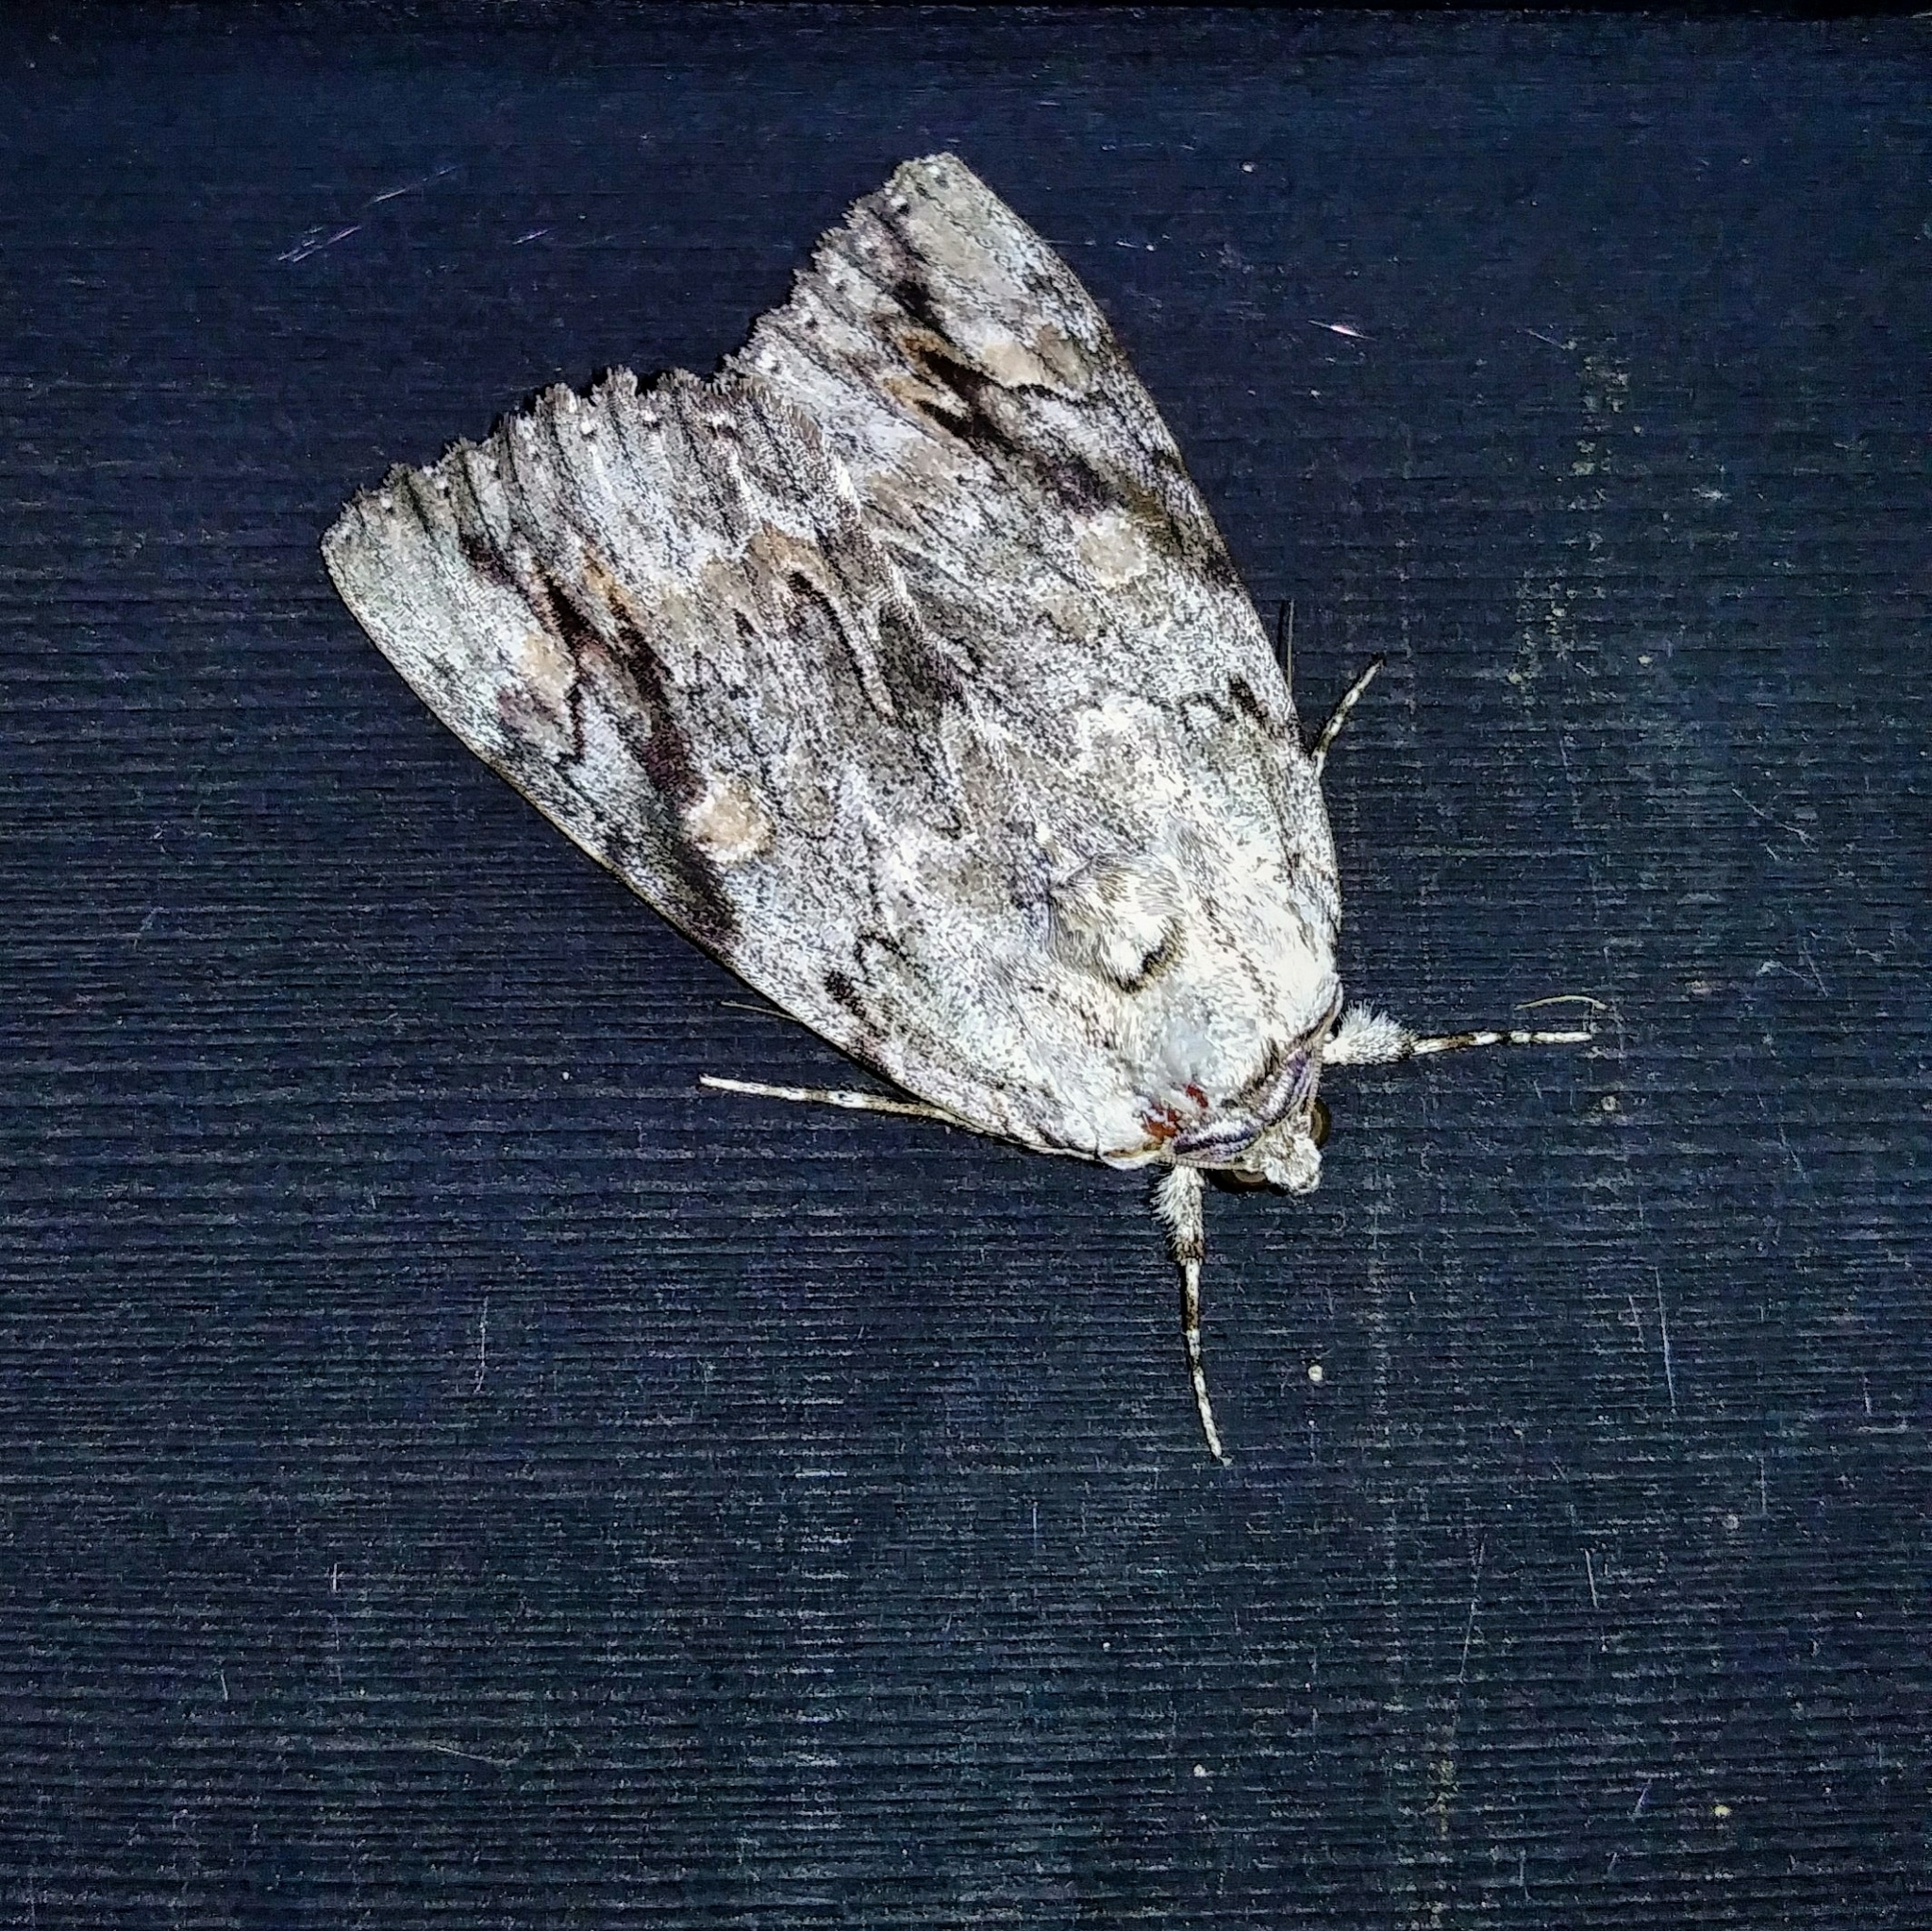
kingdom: Animalia
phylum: Arthropoda
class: Insecta
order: Lepidoptera
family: Erebidae
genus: Catocala
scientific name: Catocala maestosa
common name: Sad underwing
